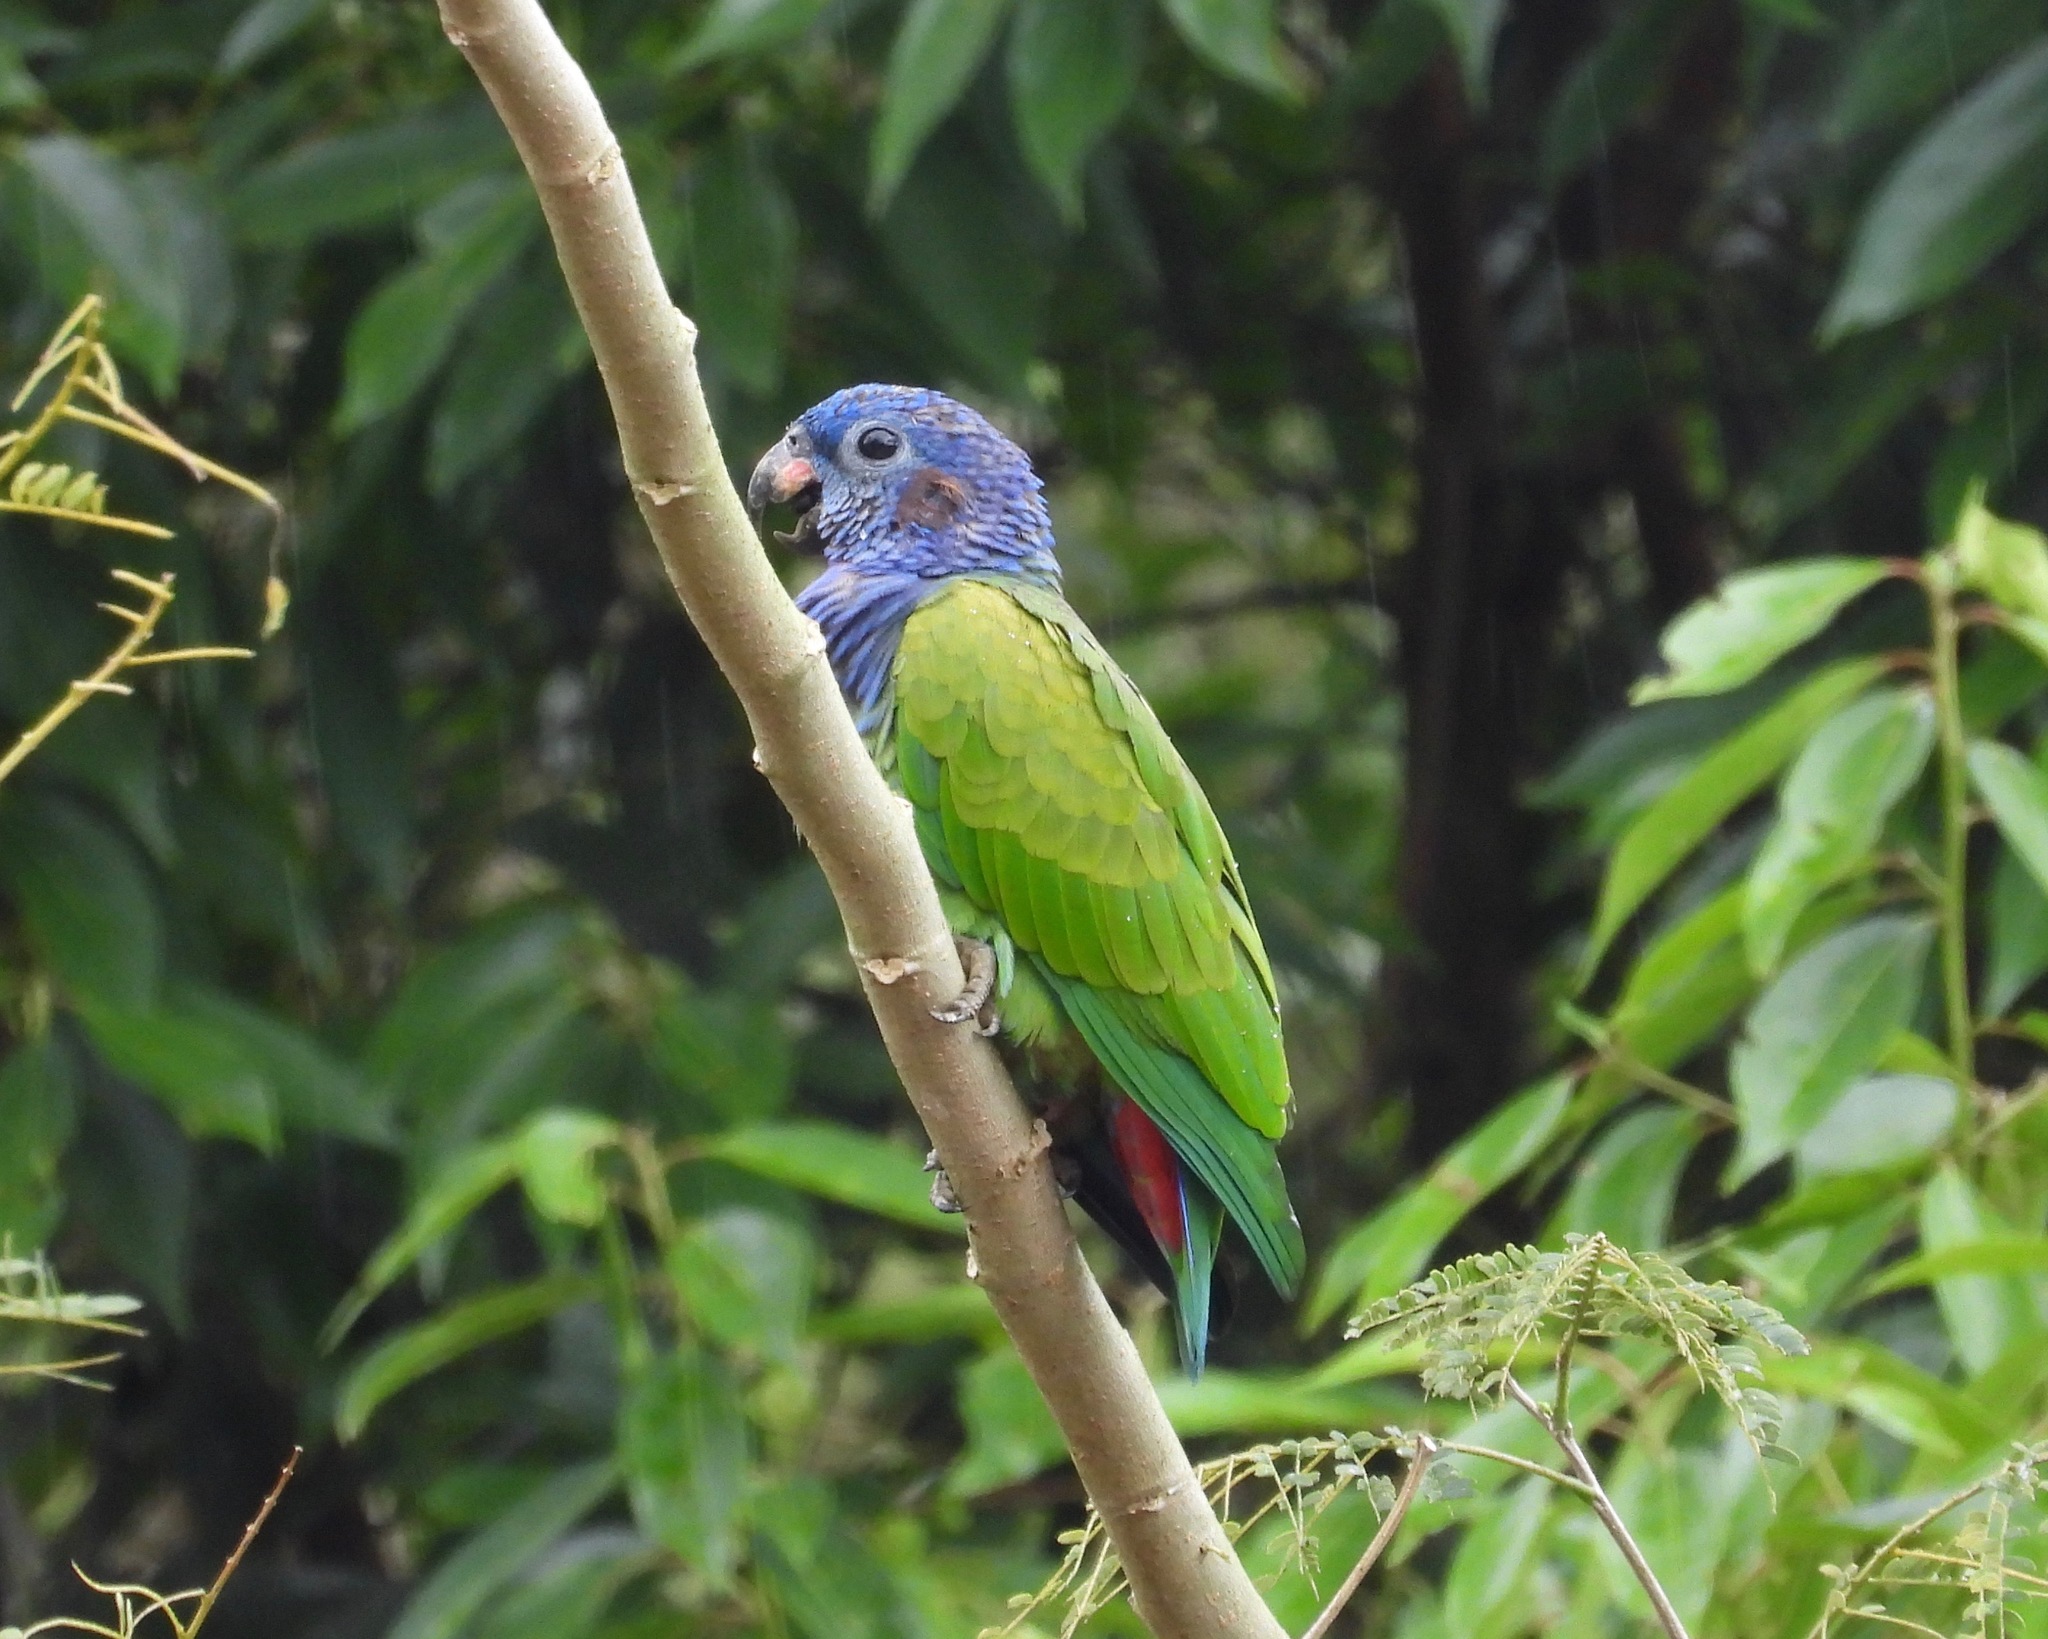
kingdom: Animalia
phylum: Chordata
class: Aves
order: Psittaciformes
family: Psittacidae
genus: Pionus
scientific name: Pionus menstruus
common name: Blue-headed parrot
